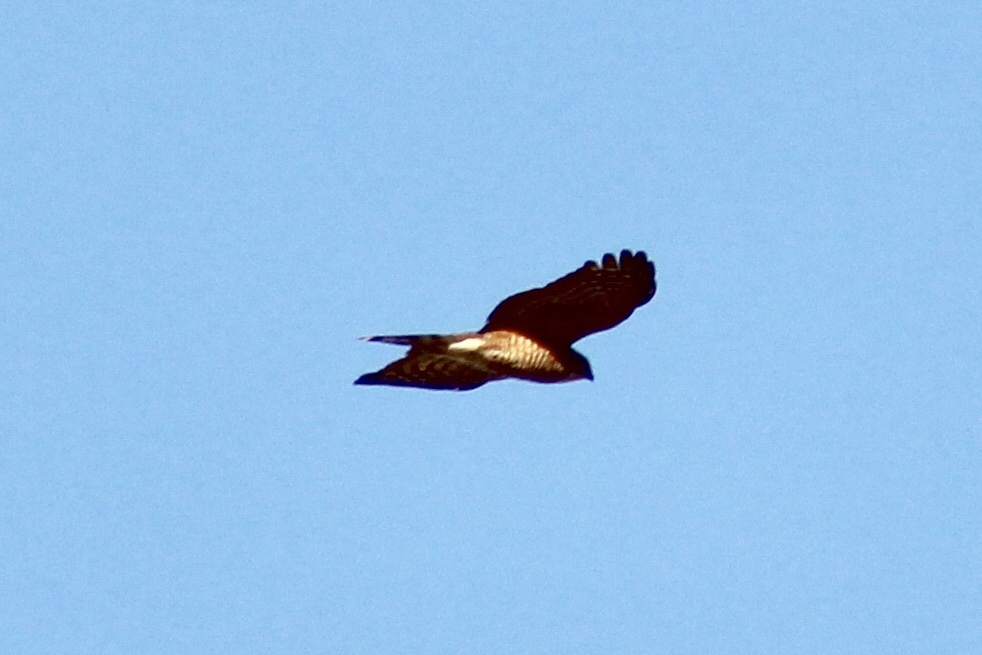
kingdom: Animalia
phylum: Chordata
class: Aves
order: Accipitriformes
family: Accipitridae
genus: Accipiter
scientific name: Accipiter striatus
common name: Sharp-shinned hawk
